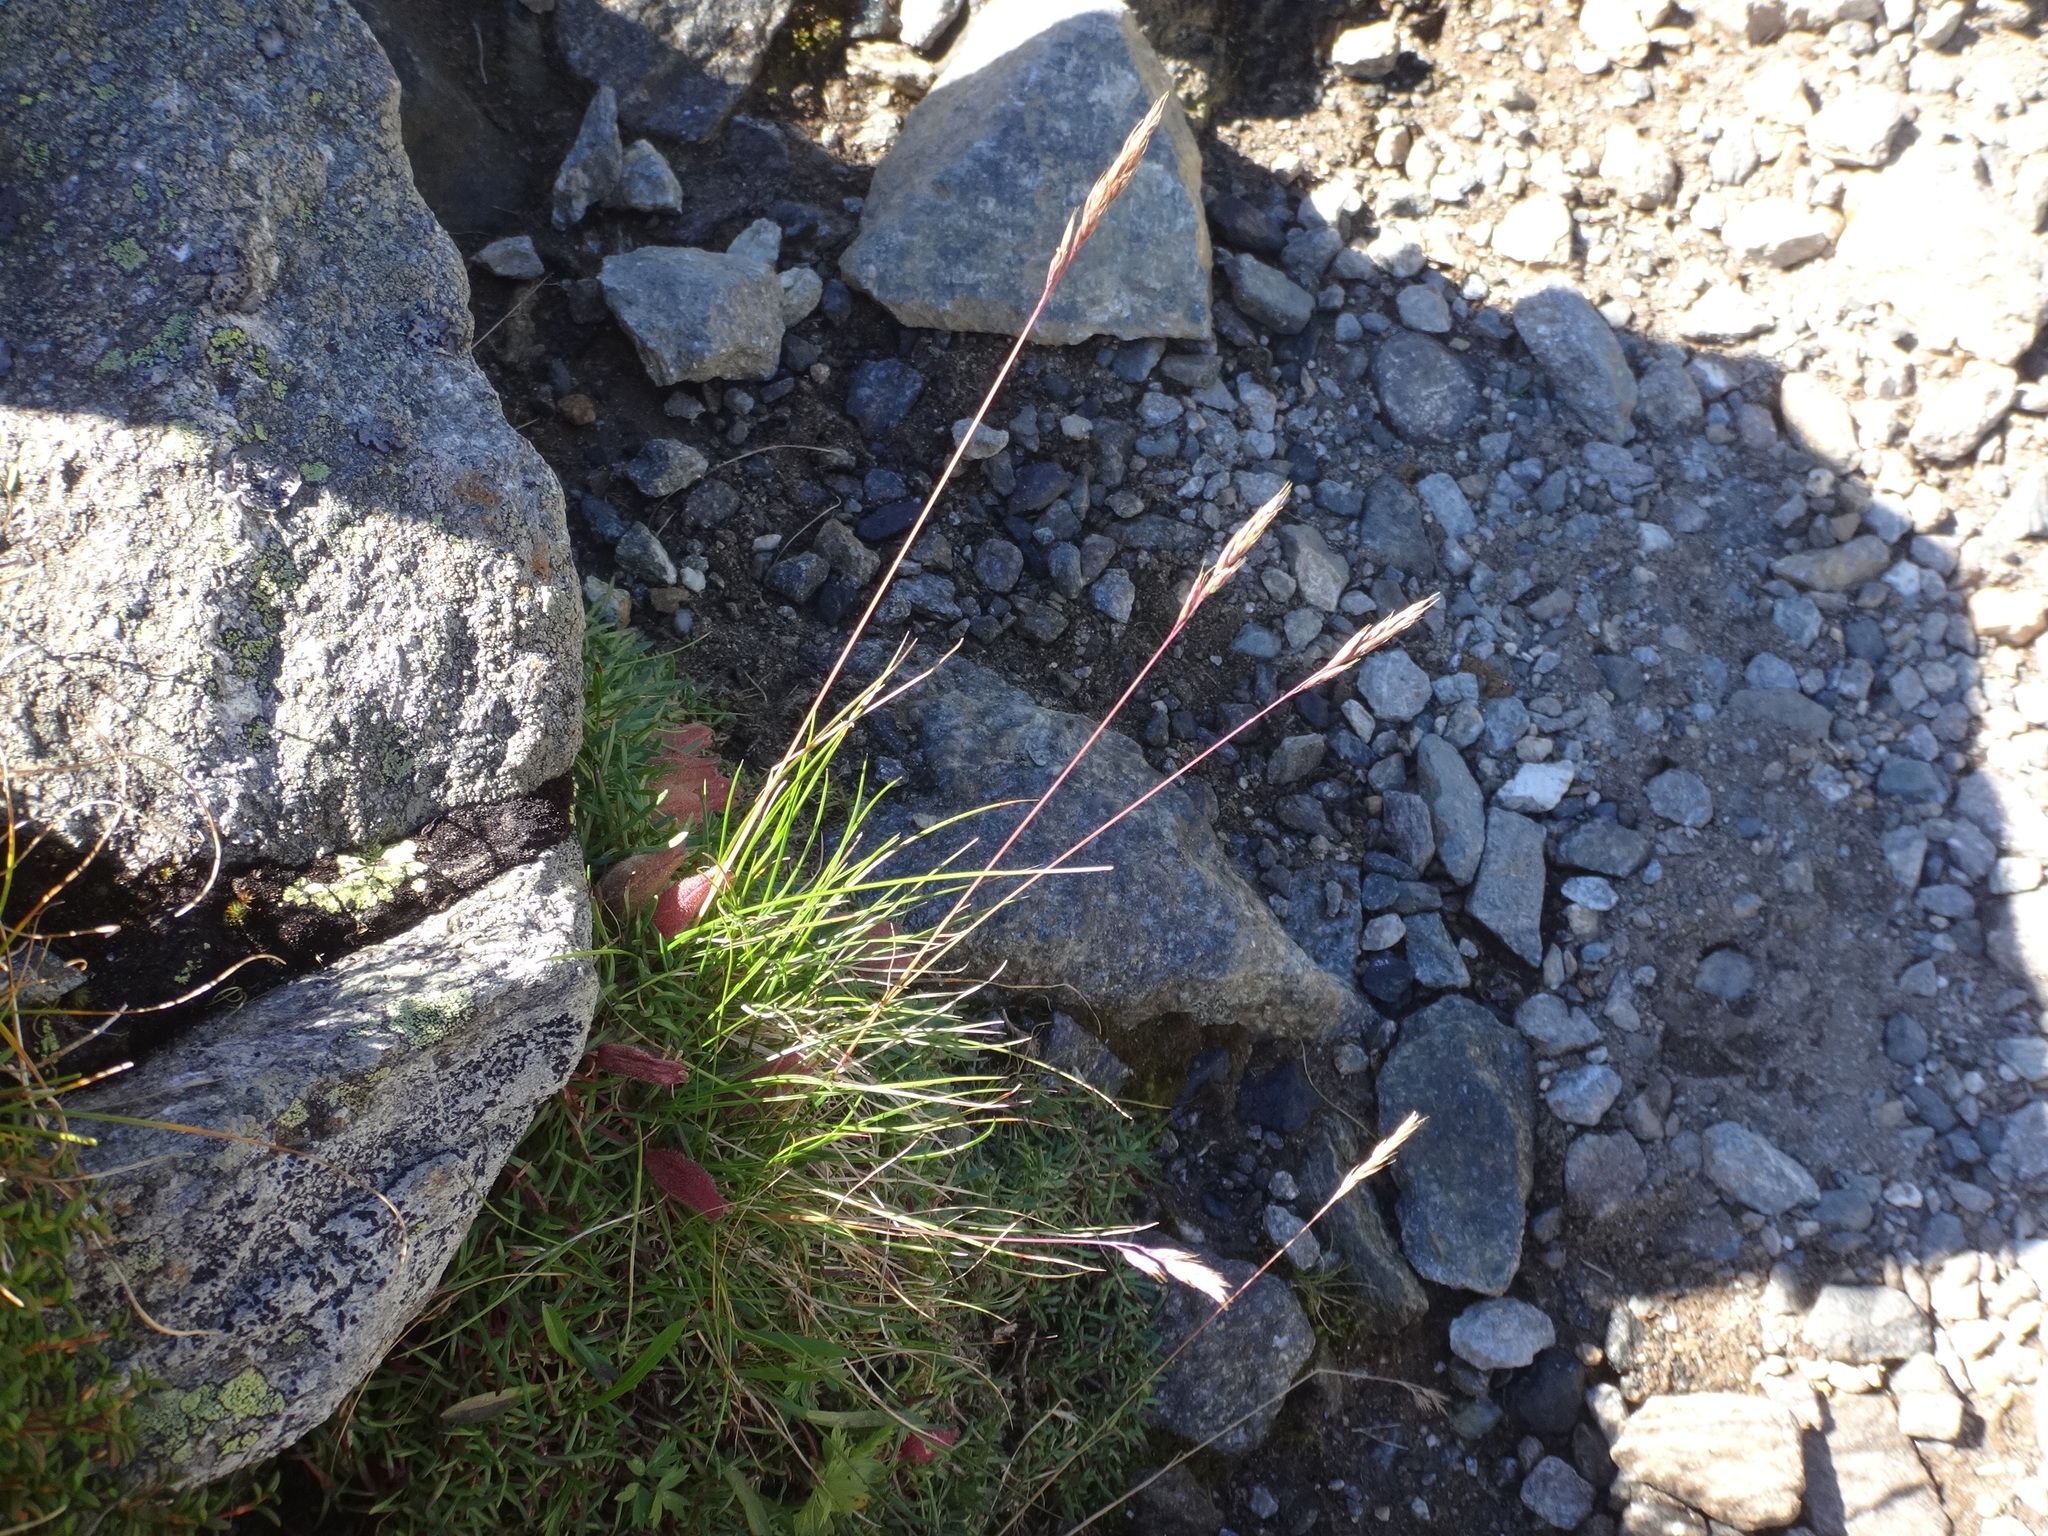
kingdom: Plantae
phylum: Tracheophyta
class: Liliopsida
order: Poales
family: Poaceae
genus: Festuca
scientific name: Festuca pseudodura
